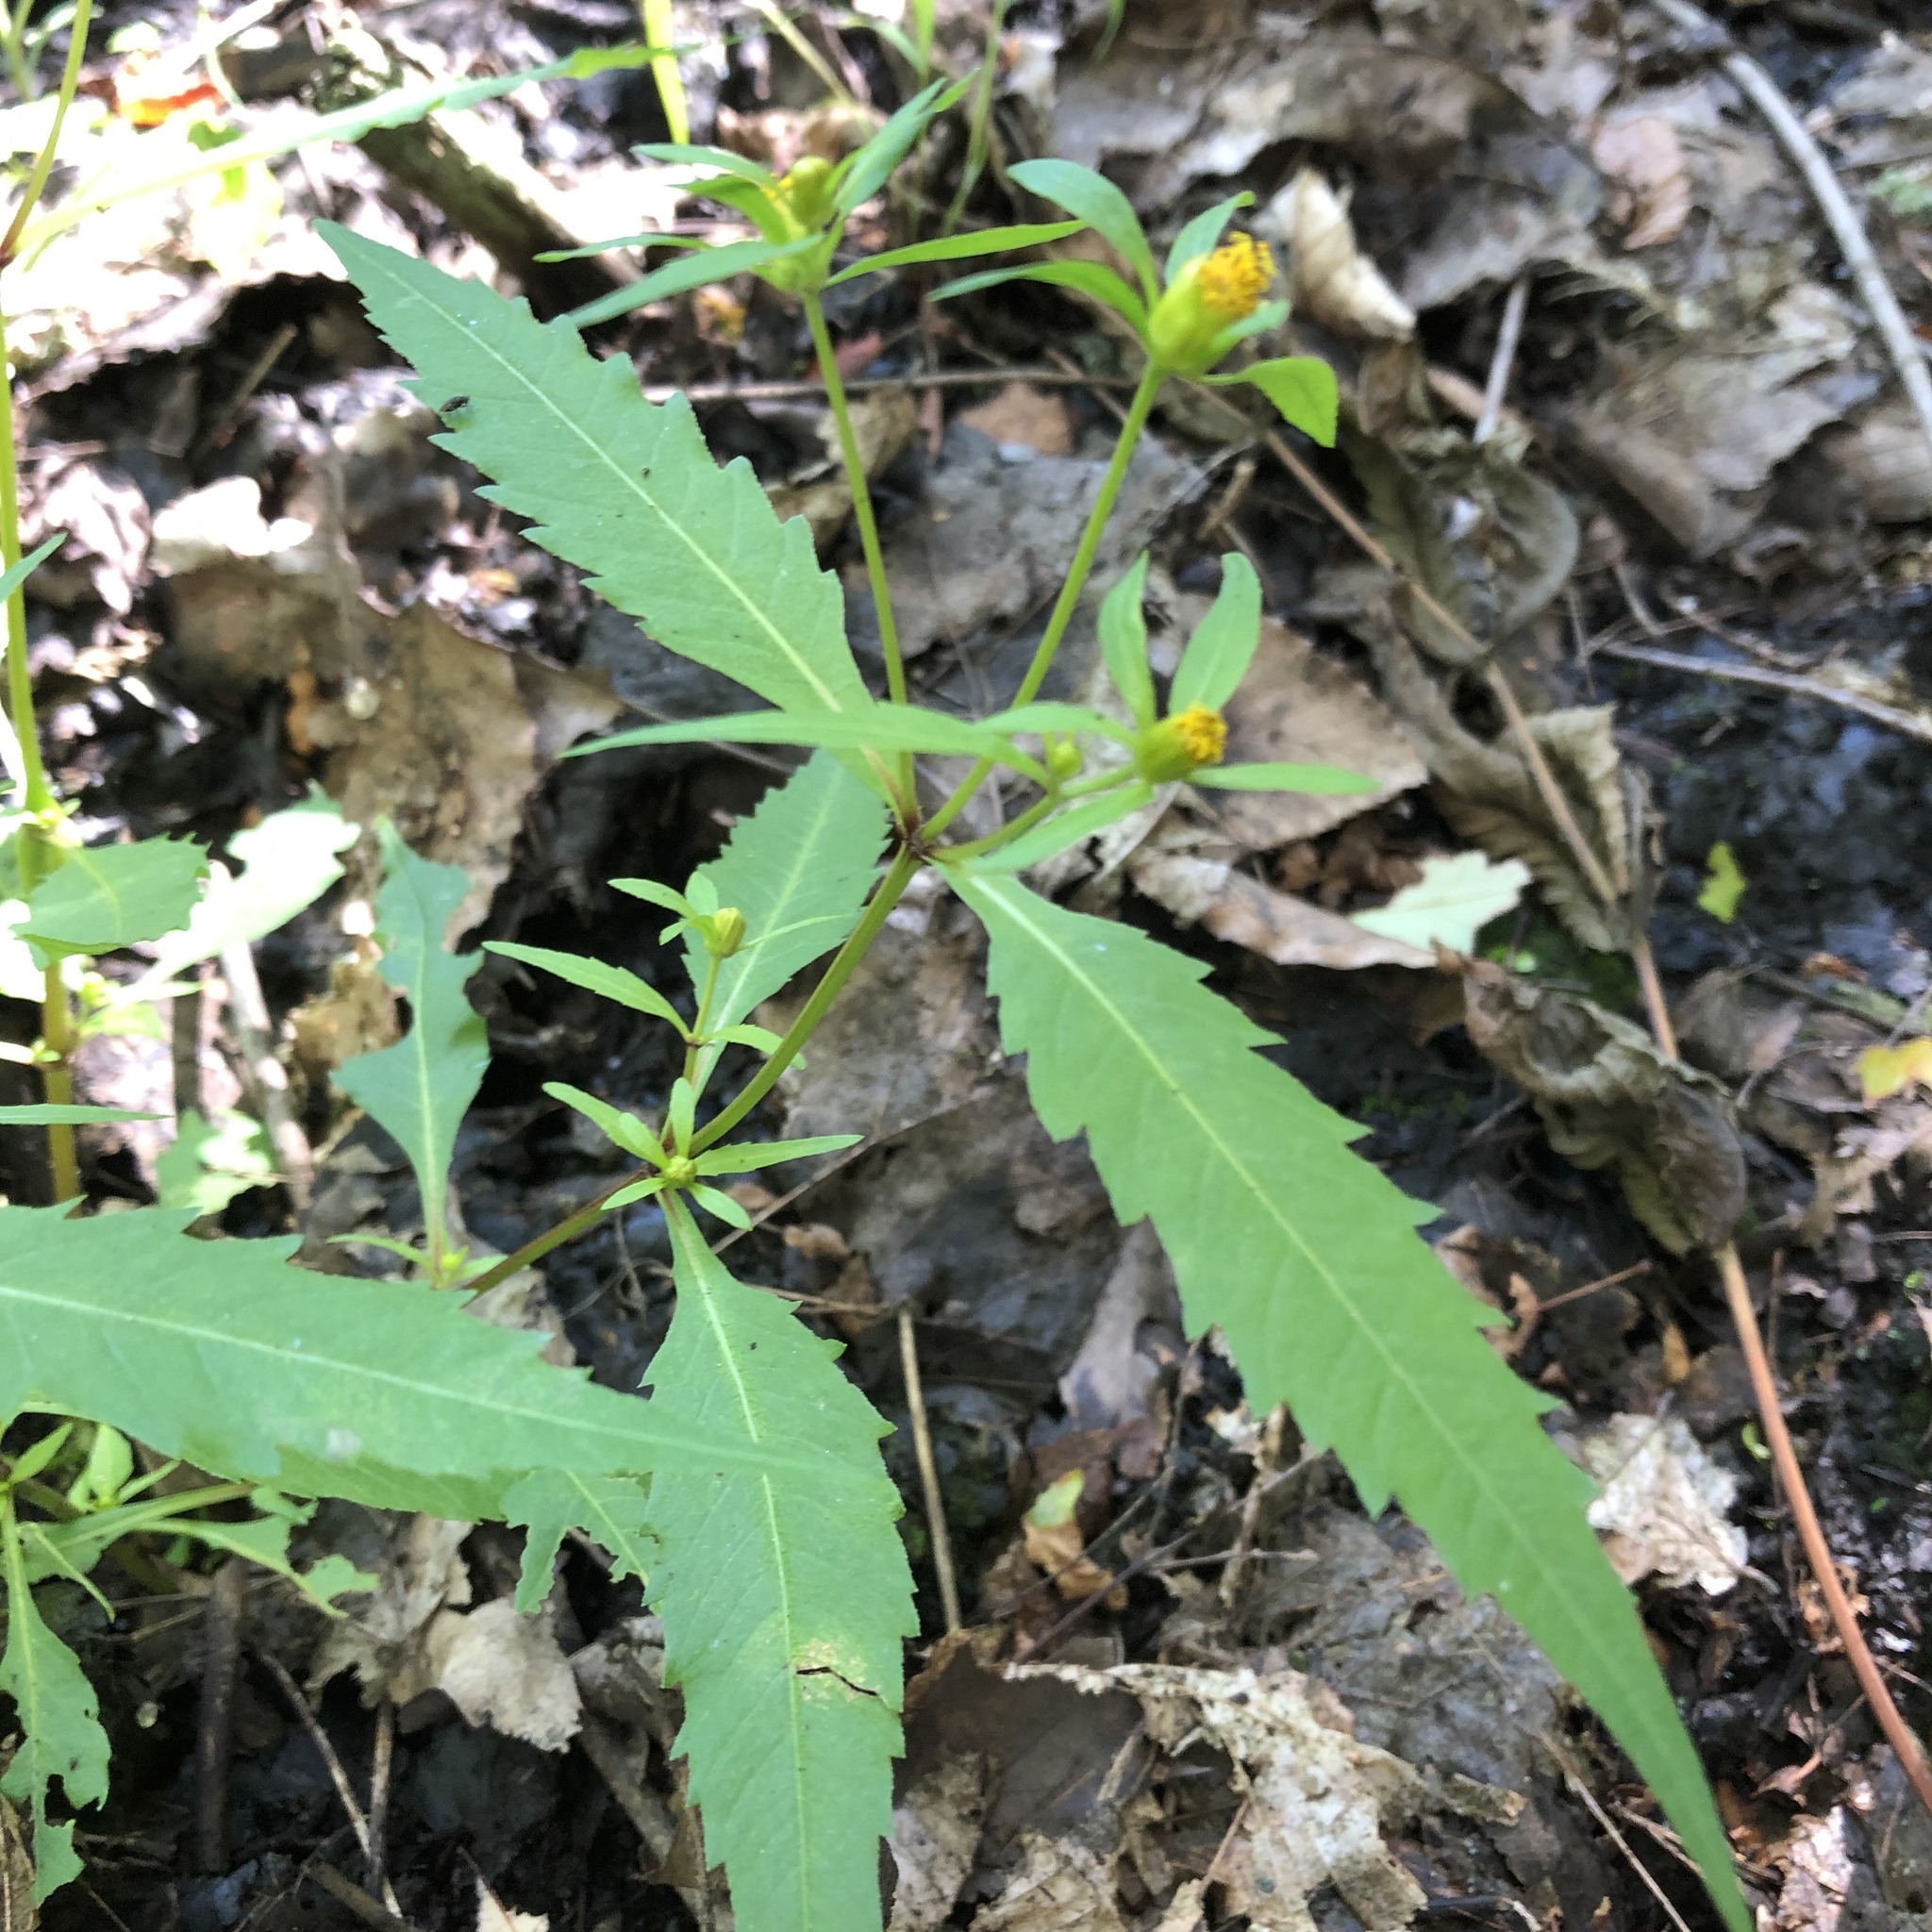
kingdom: Plantae
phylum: Tracheophyta
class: Magnoliopsida
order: Asterales
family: Asteraceae
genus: Bidens
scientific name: Bidens connata
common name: London bur-marigold
